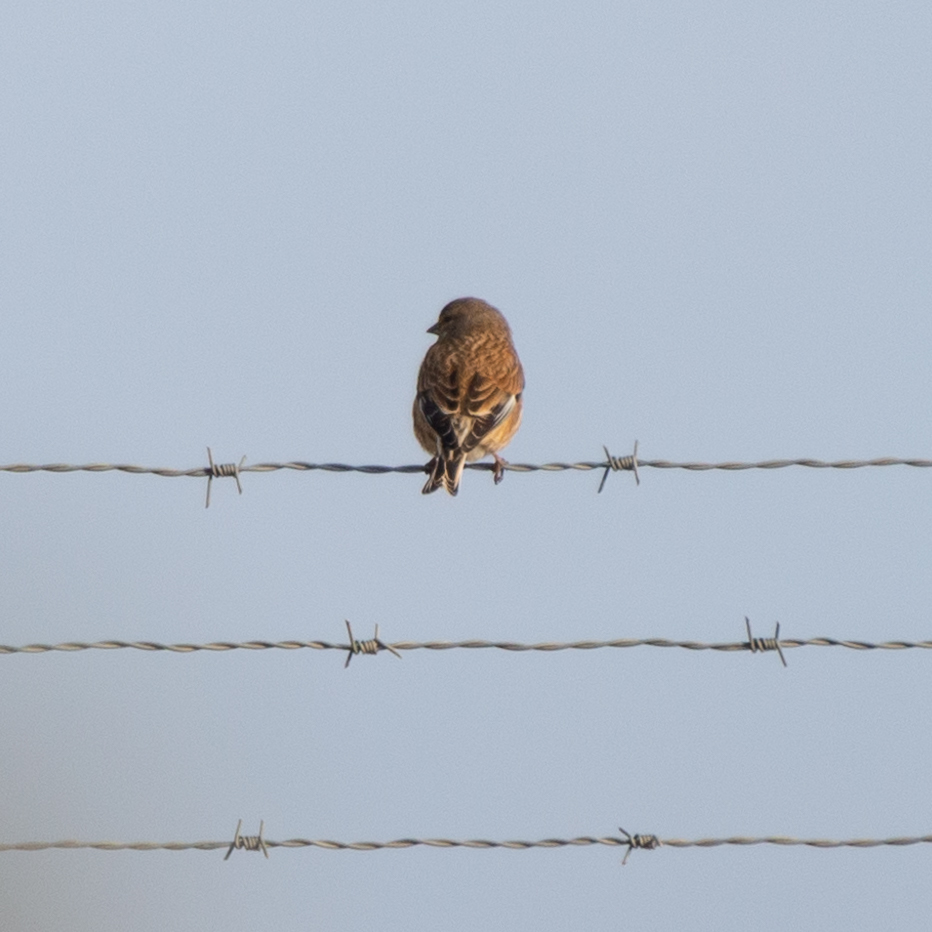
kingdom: Animalia
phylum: Chordata
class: Aves
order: Passeriformes
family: Fringillidae
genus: Linaria
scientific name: Linaria cannabina
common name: Common linnet
